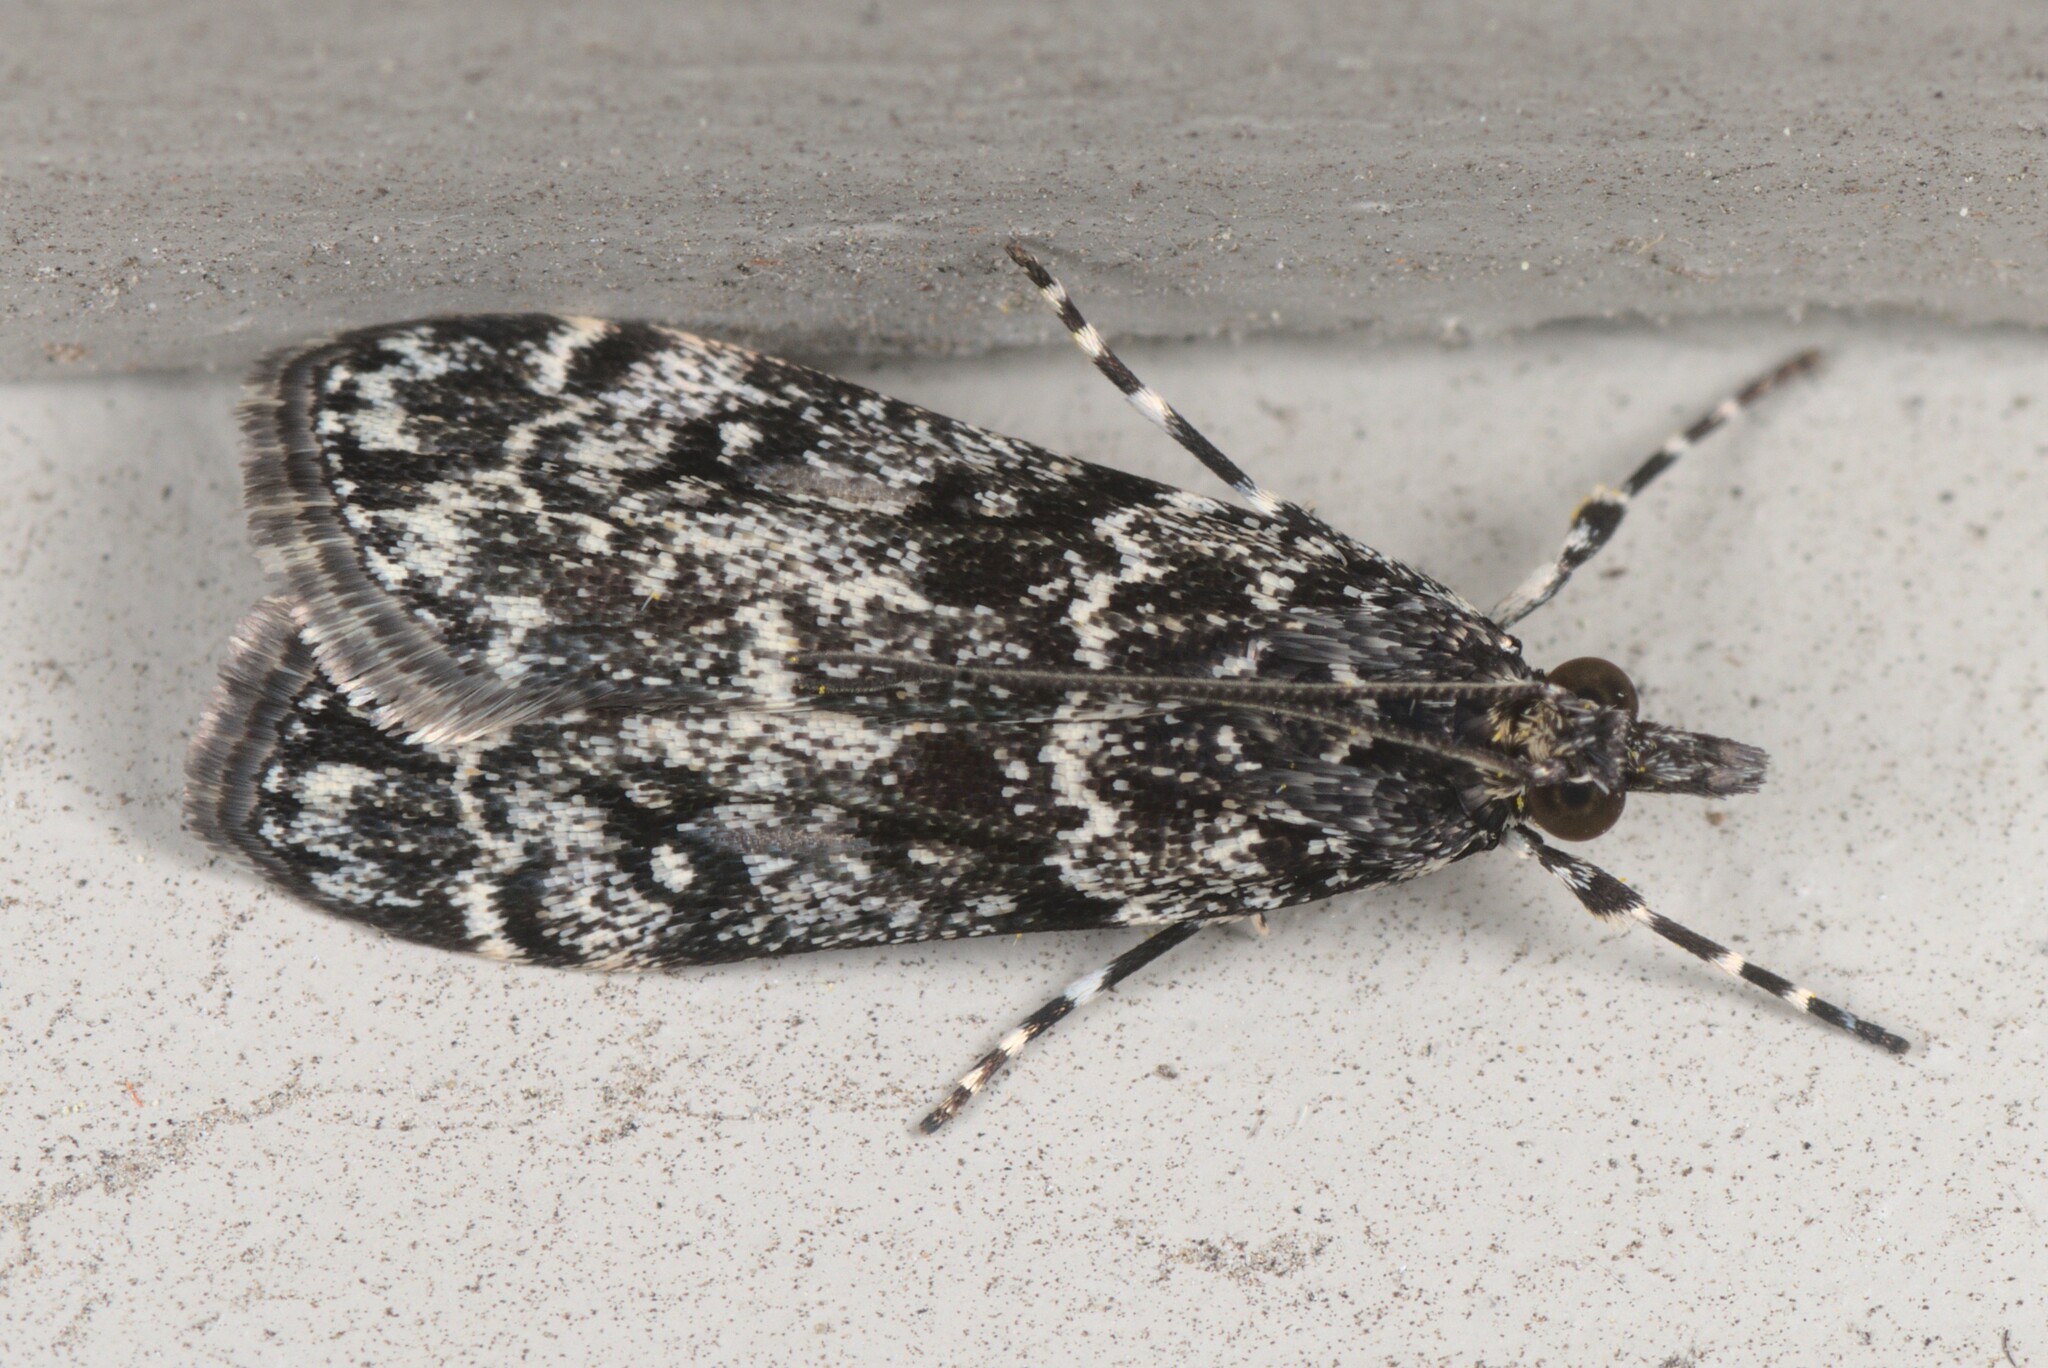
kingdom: Animalia
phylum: Arthropoda
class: Insecta
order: Lepidoptera
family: Crambidae
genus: Eudonia
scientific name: Eudonia philerga
